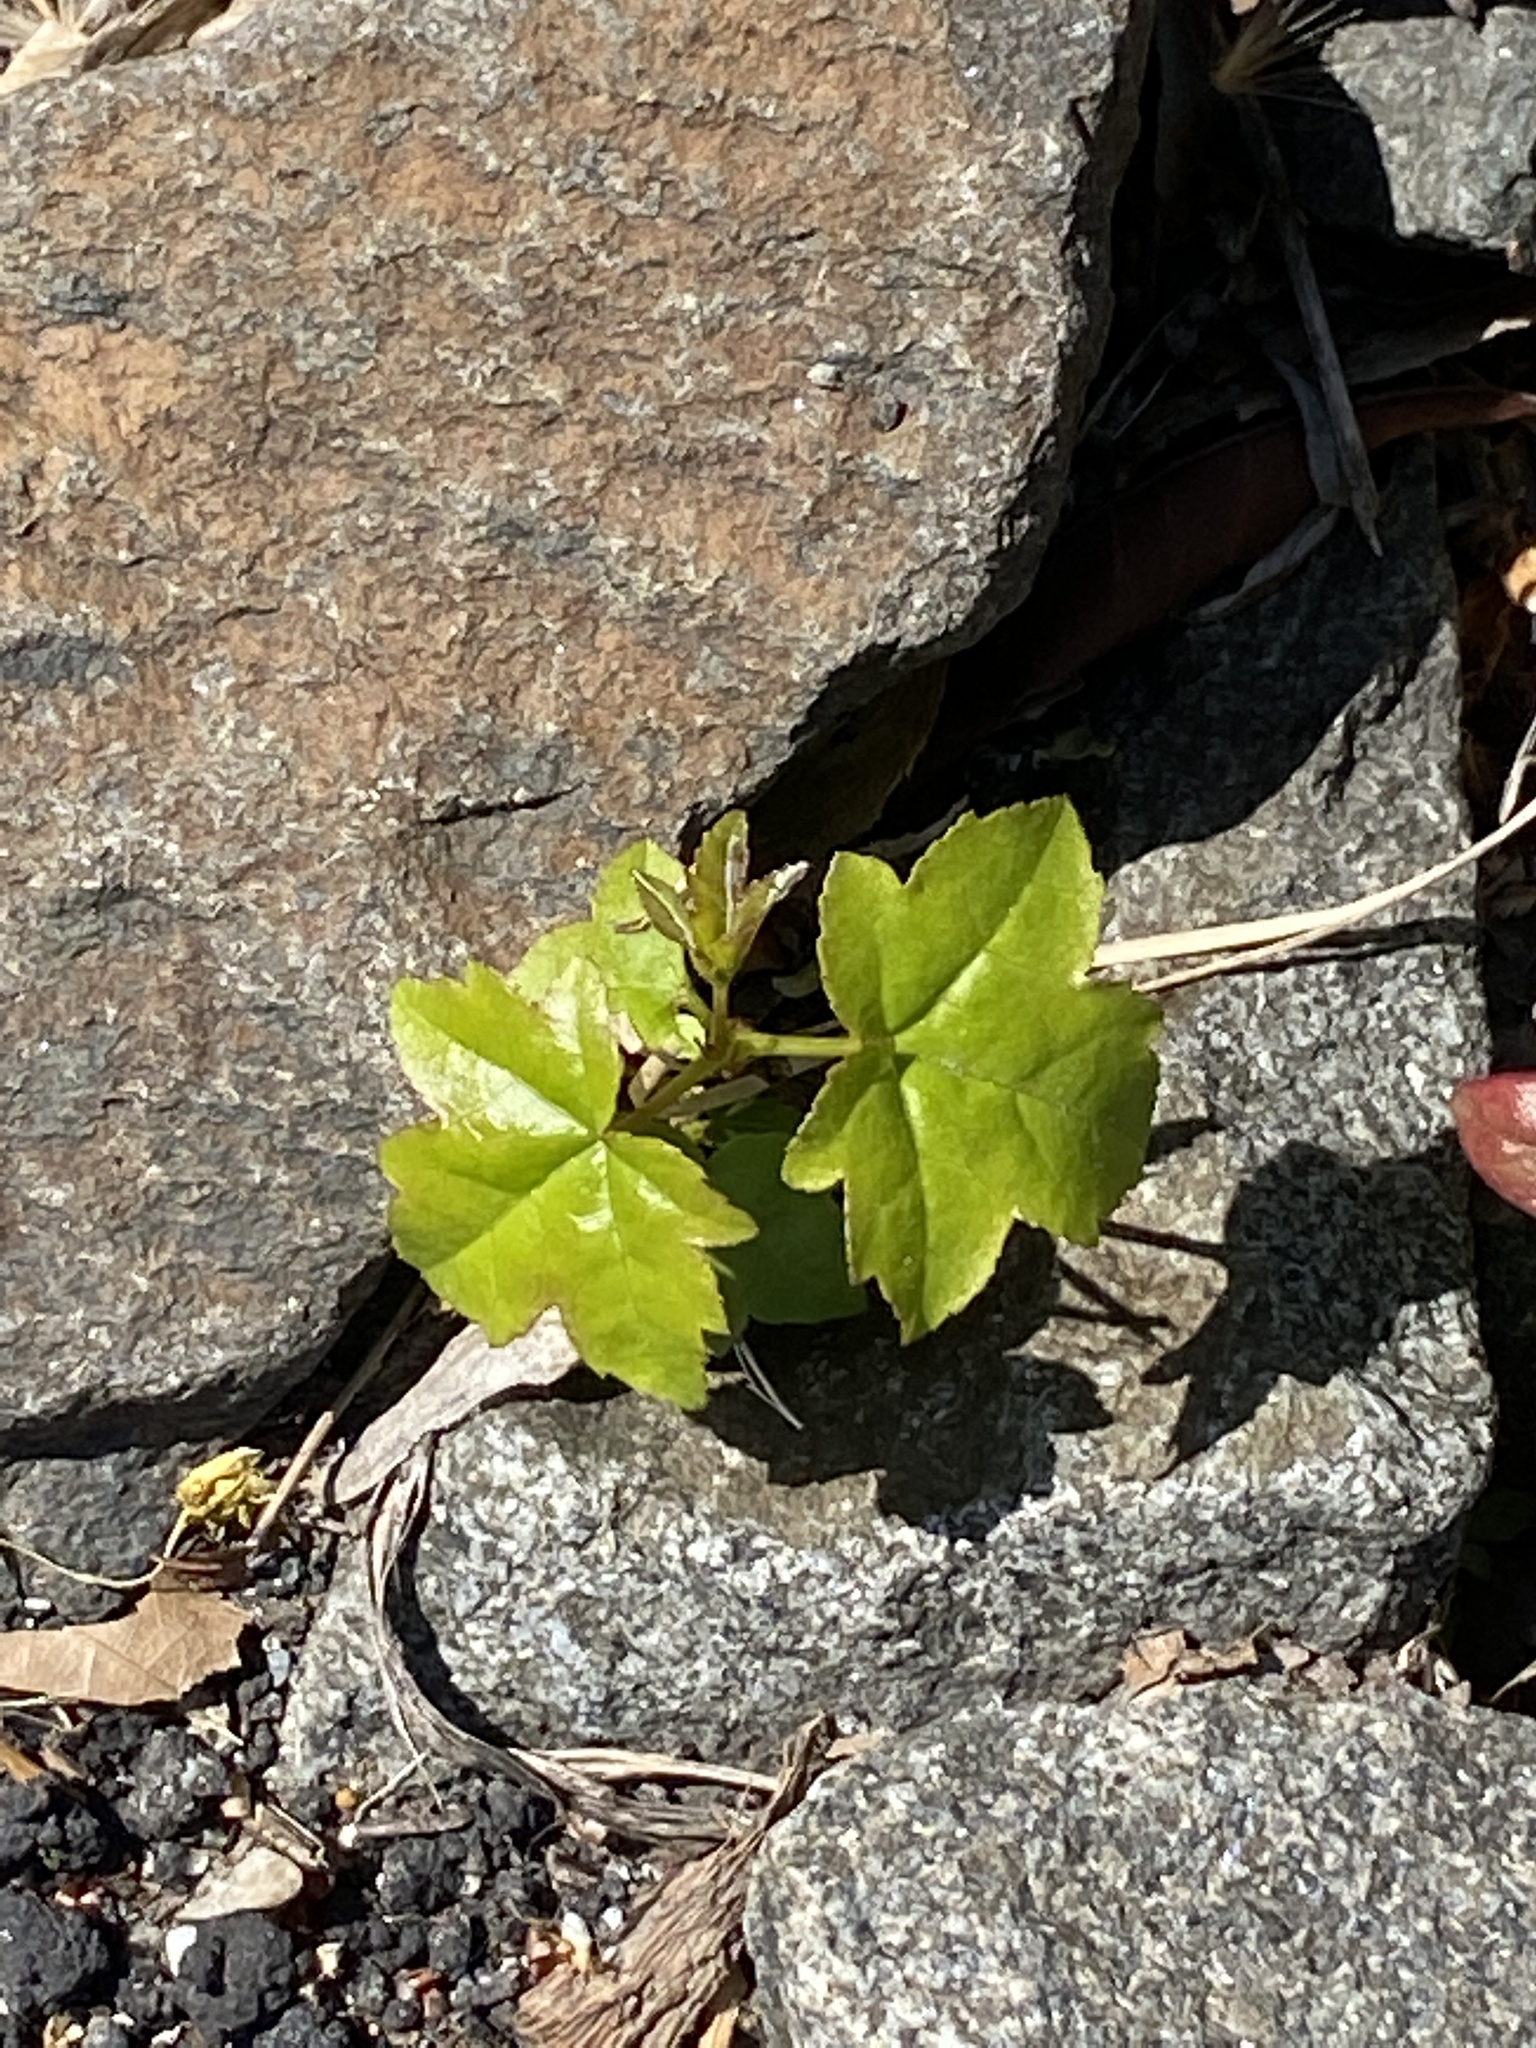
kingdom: Plantae
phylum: Tracheophyta
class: Magnoliopsida
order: Saxifragales
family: Altingiaceae
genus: Liquidambar
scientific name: Liquidambar styraciflua
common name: Sweet gum
